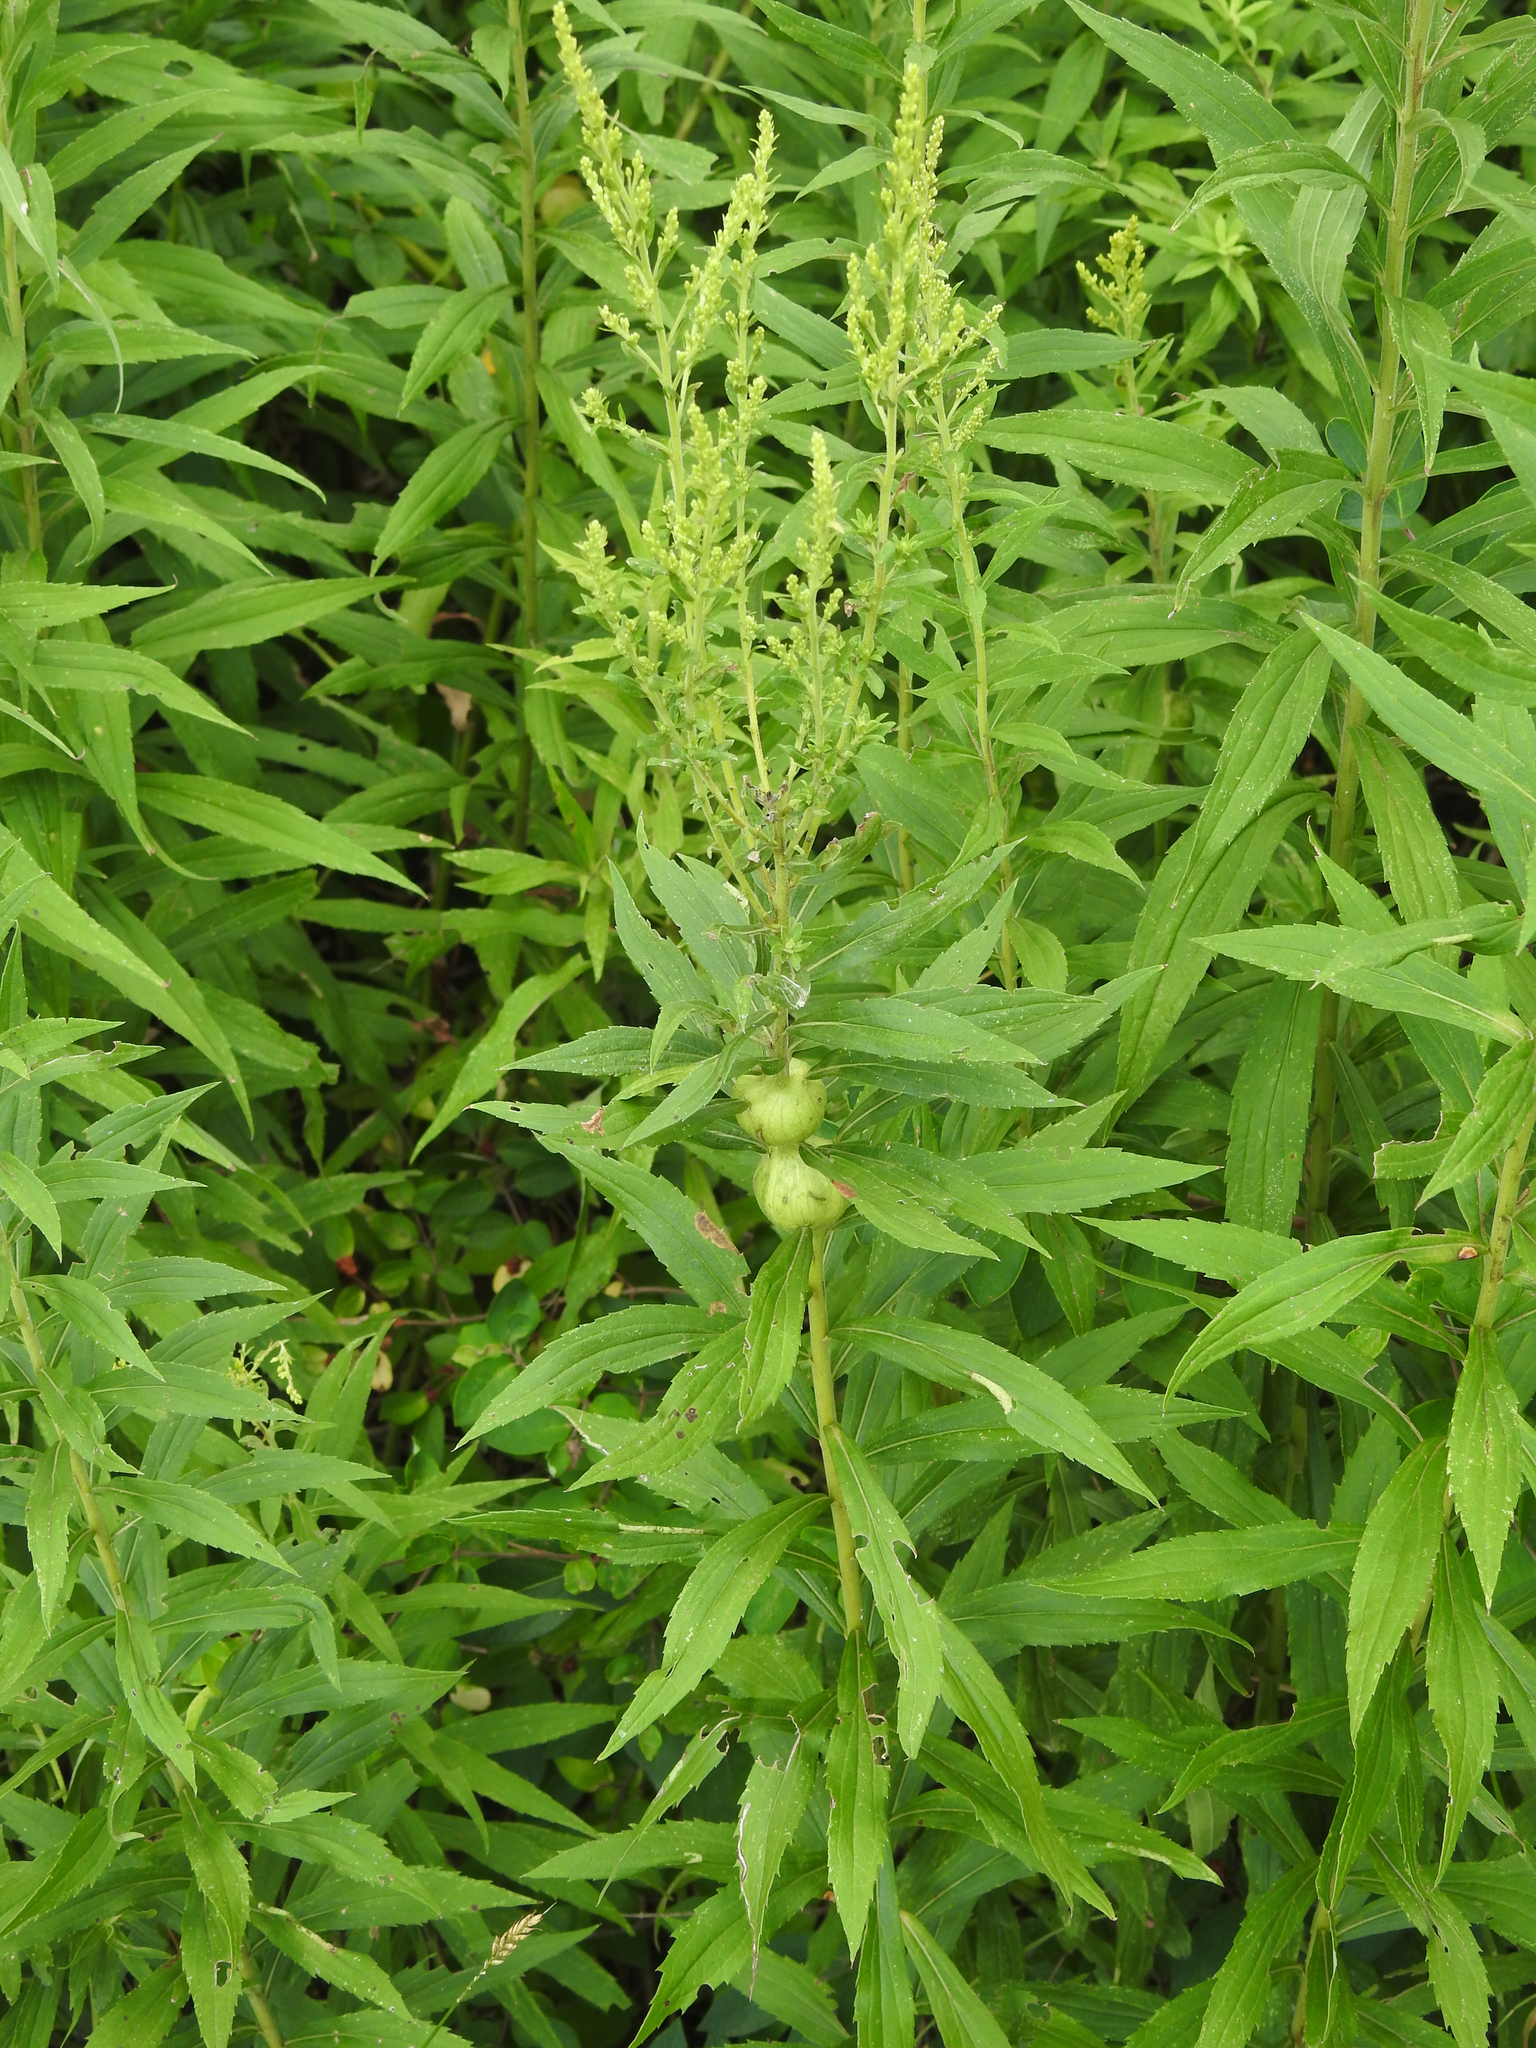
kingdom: Animalia
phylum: Arthropoda
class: Insecta
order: Diptera
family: Tephritidae
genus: Eurosta
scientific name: Eurosta solidaginis
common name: Goldenrod gall fly
